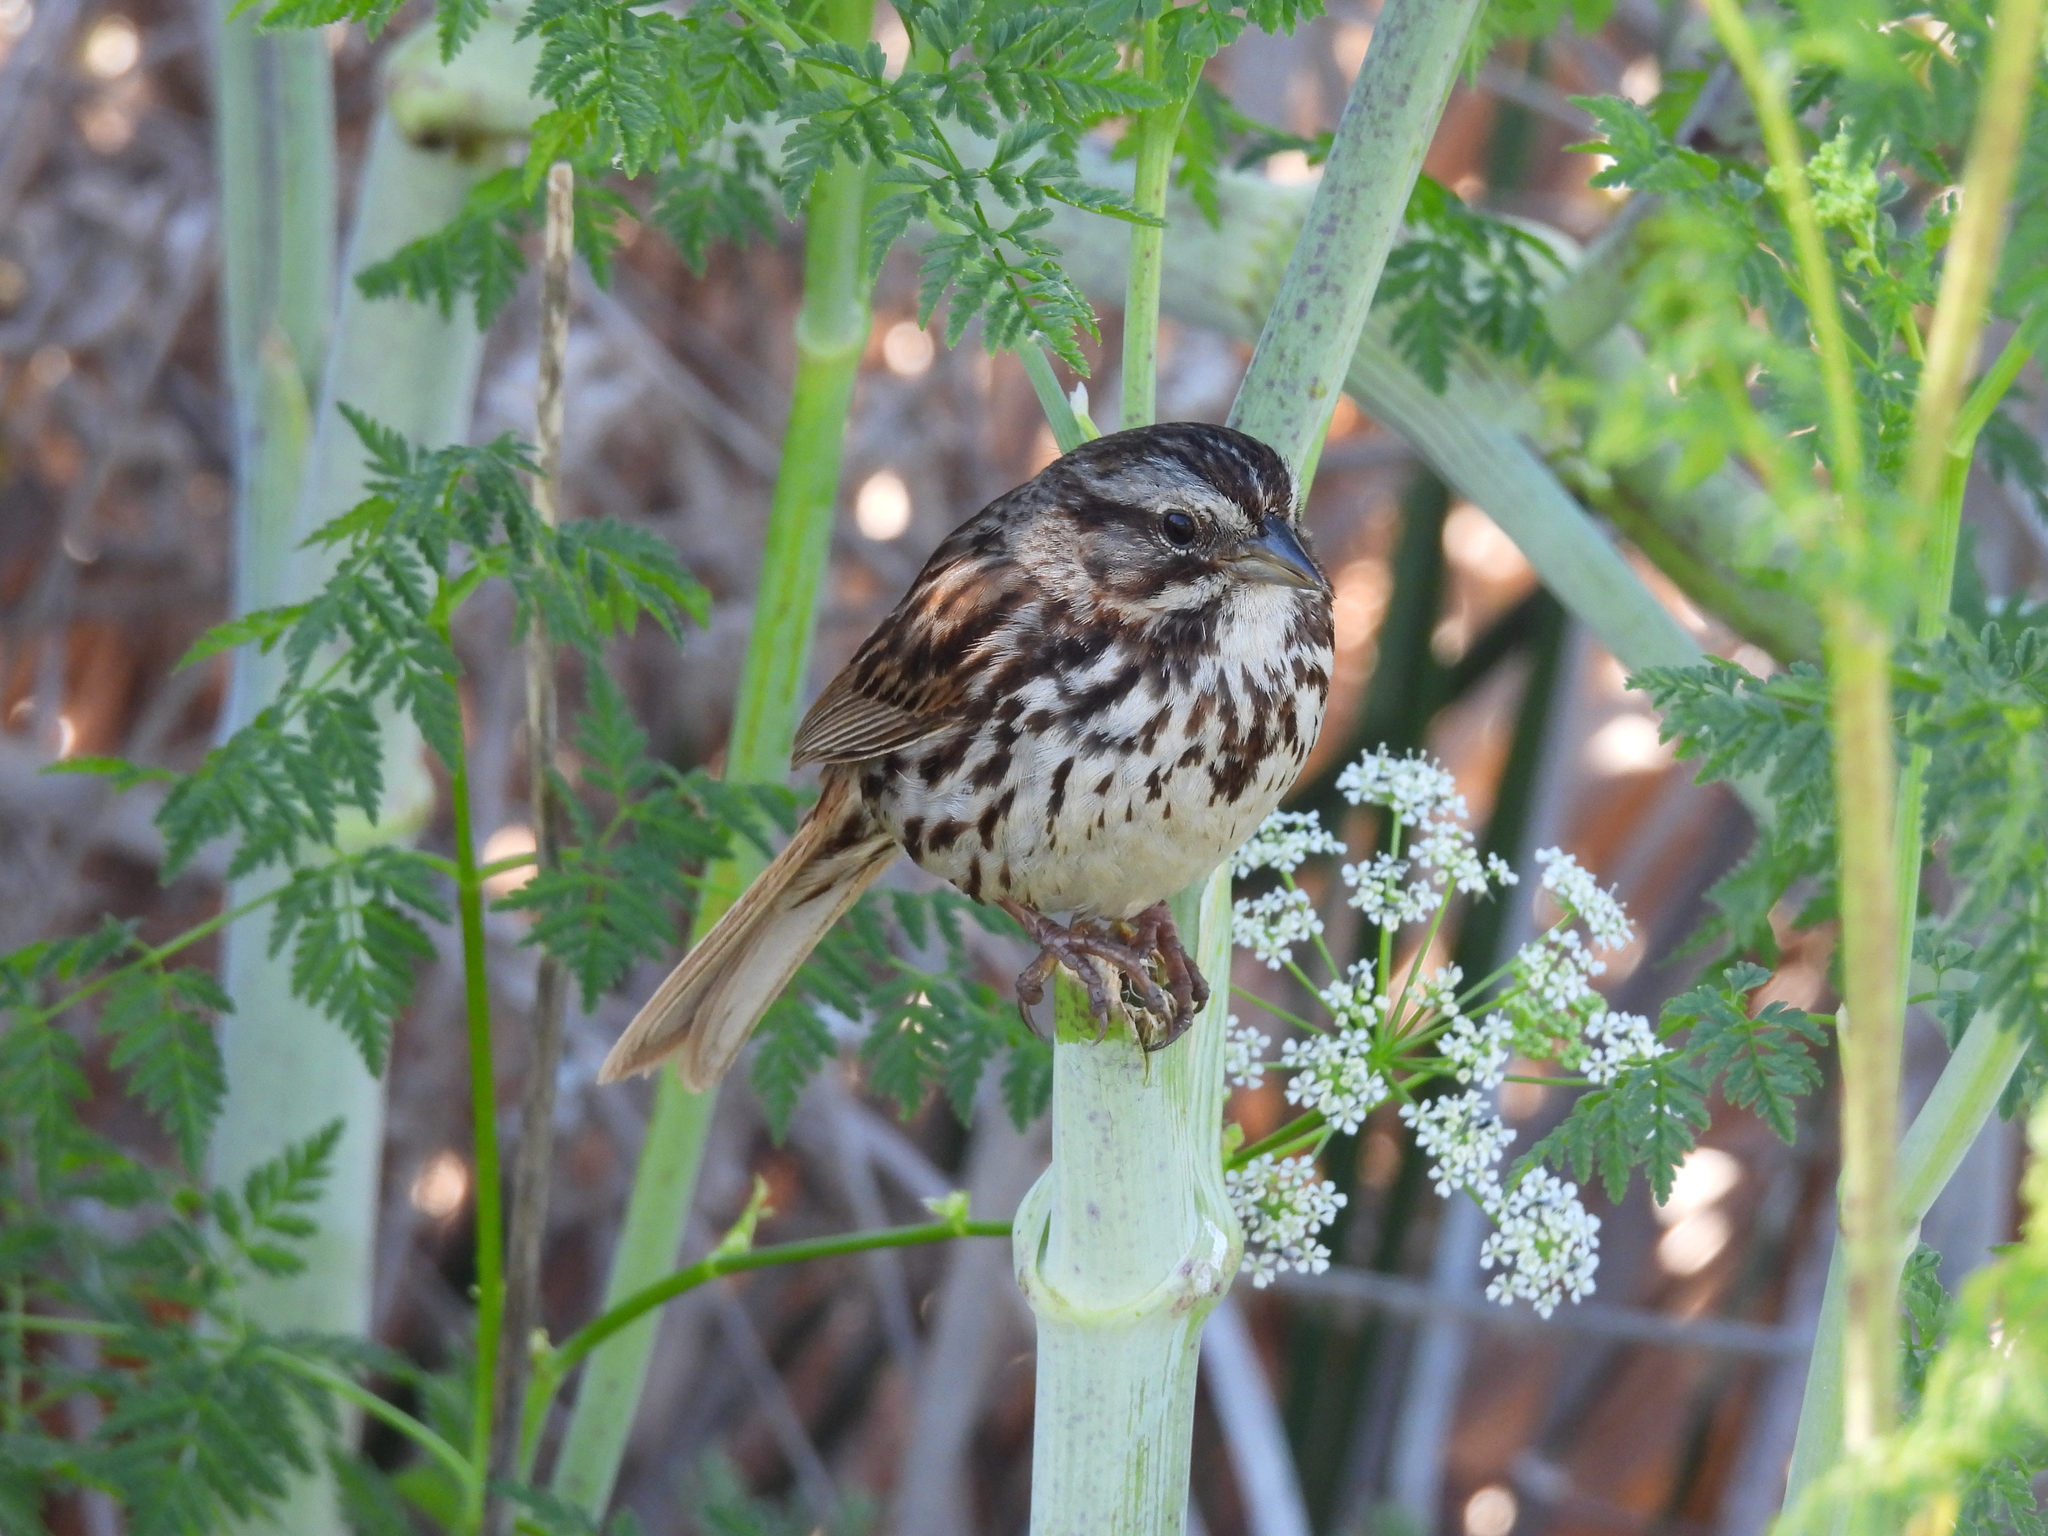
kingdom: Animalia
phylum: Chordata
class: Aves
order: Passeriformes
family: Passerellidae
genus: Melospiza
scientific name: Melospiza melodia
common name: Song sparrow
